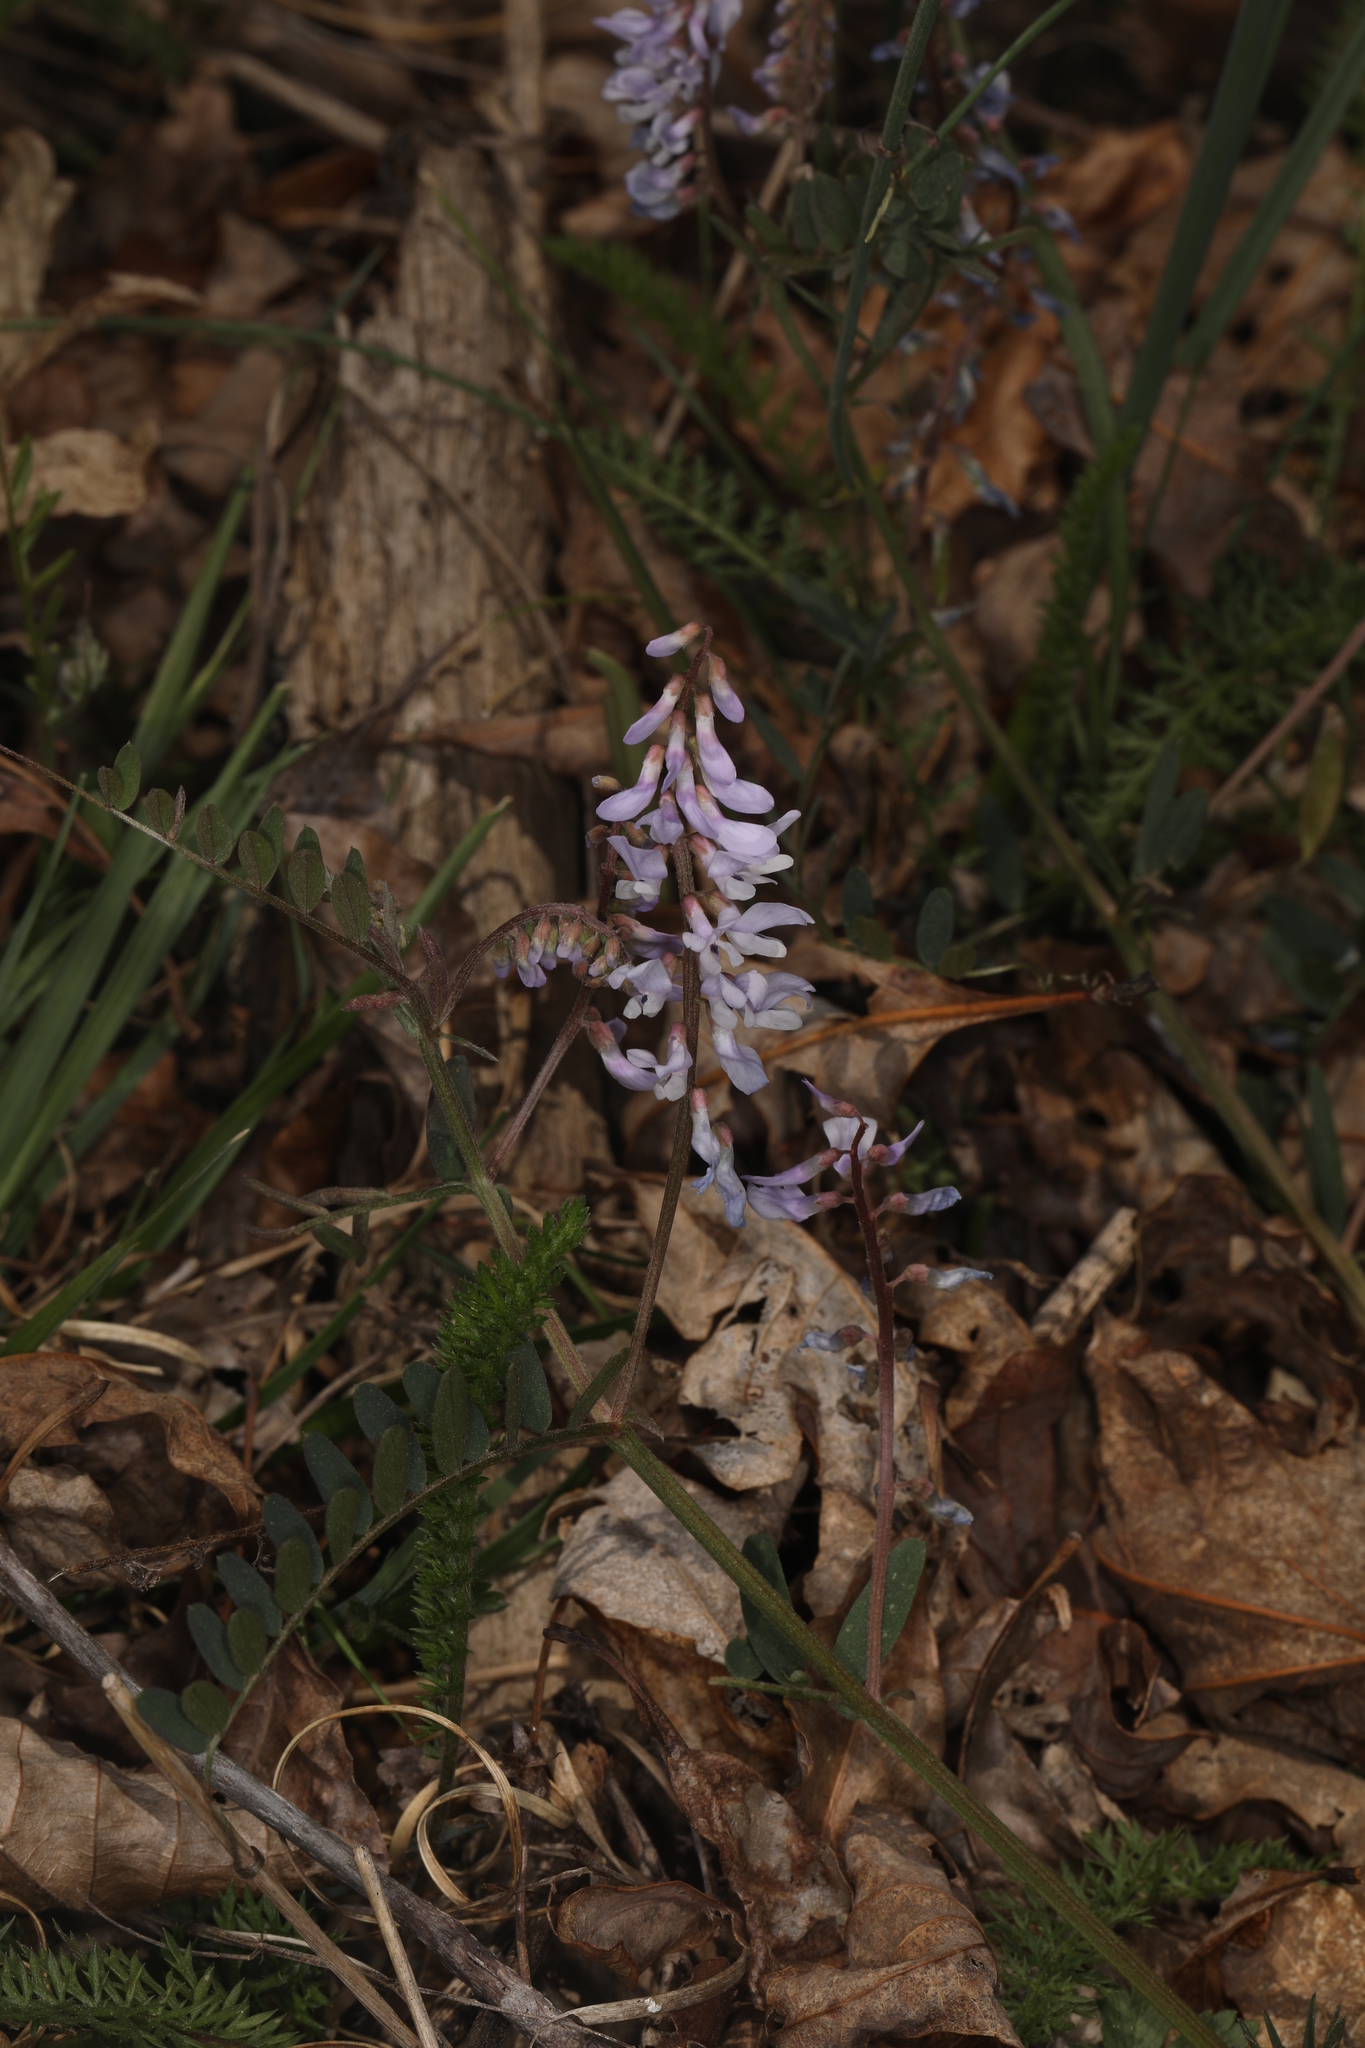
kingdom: Plantae
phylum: Tracheophyta
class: Magnoliopsida
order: Fabales
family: Fabaceae
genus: Vicia
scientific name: Vicia caroliniana
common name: Carolina vetch
